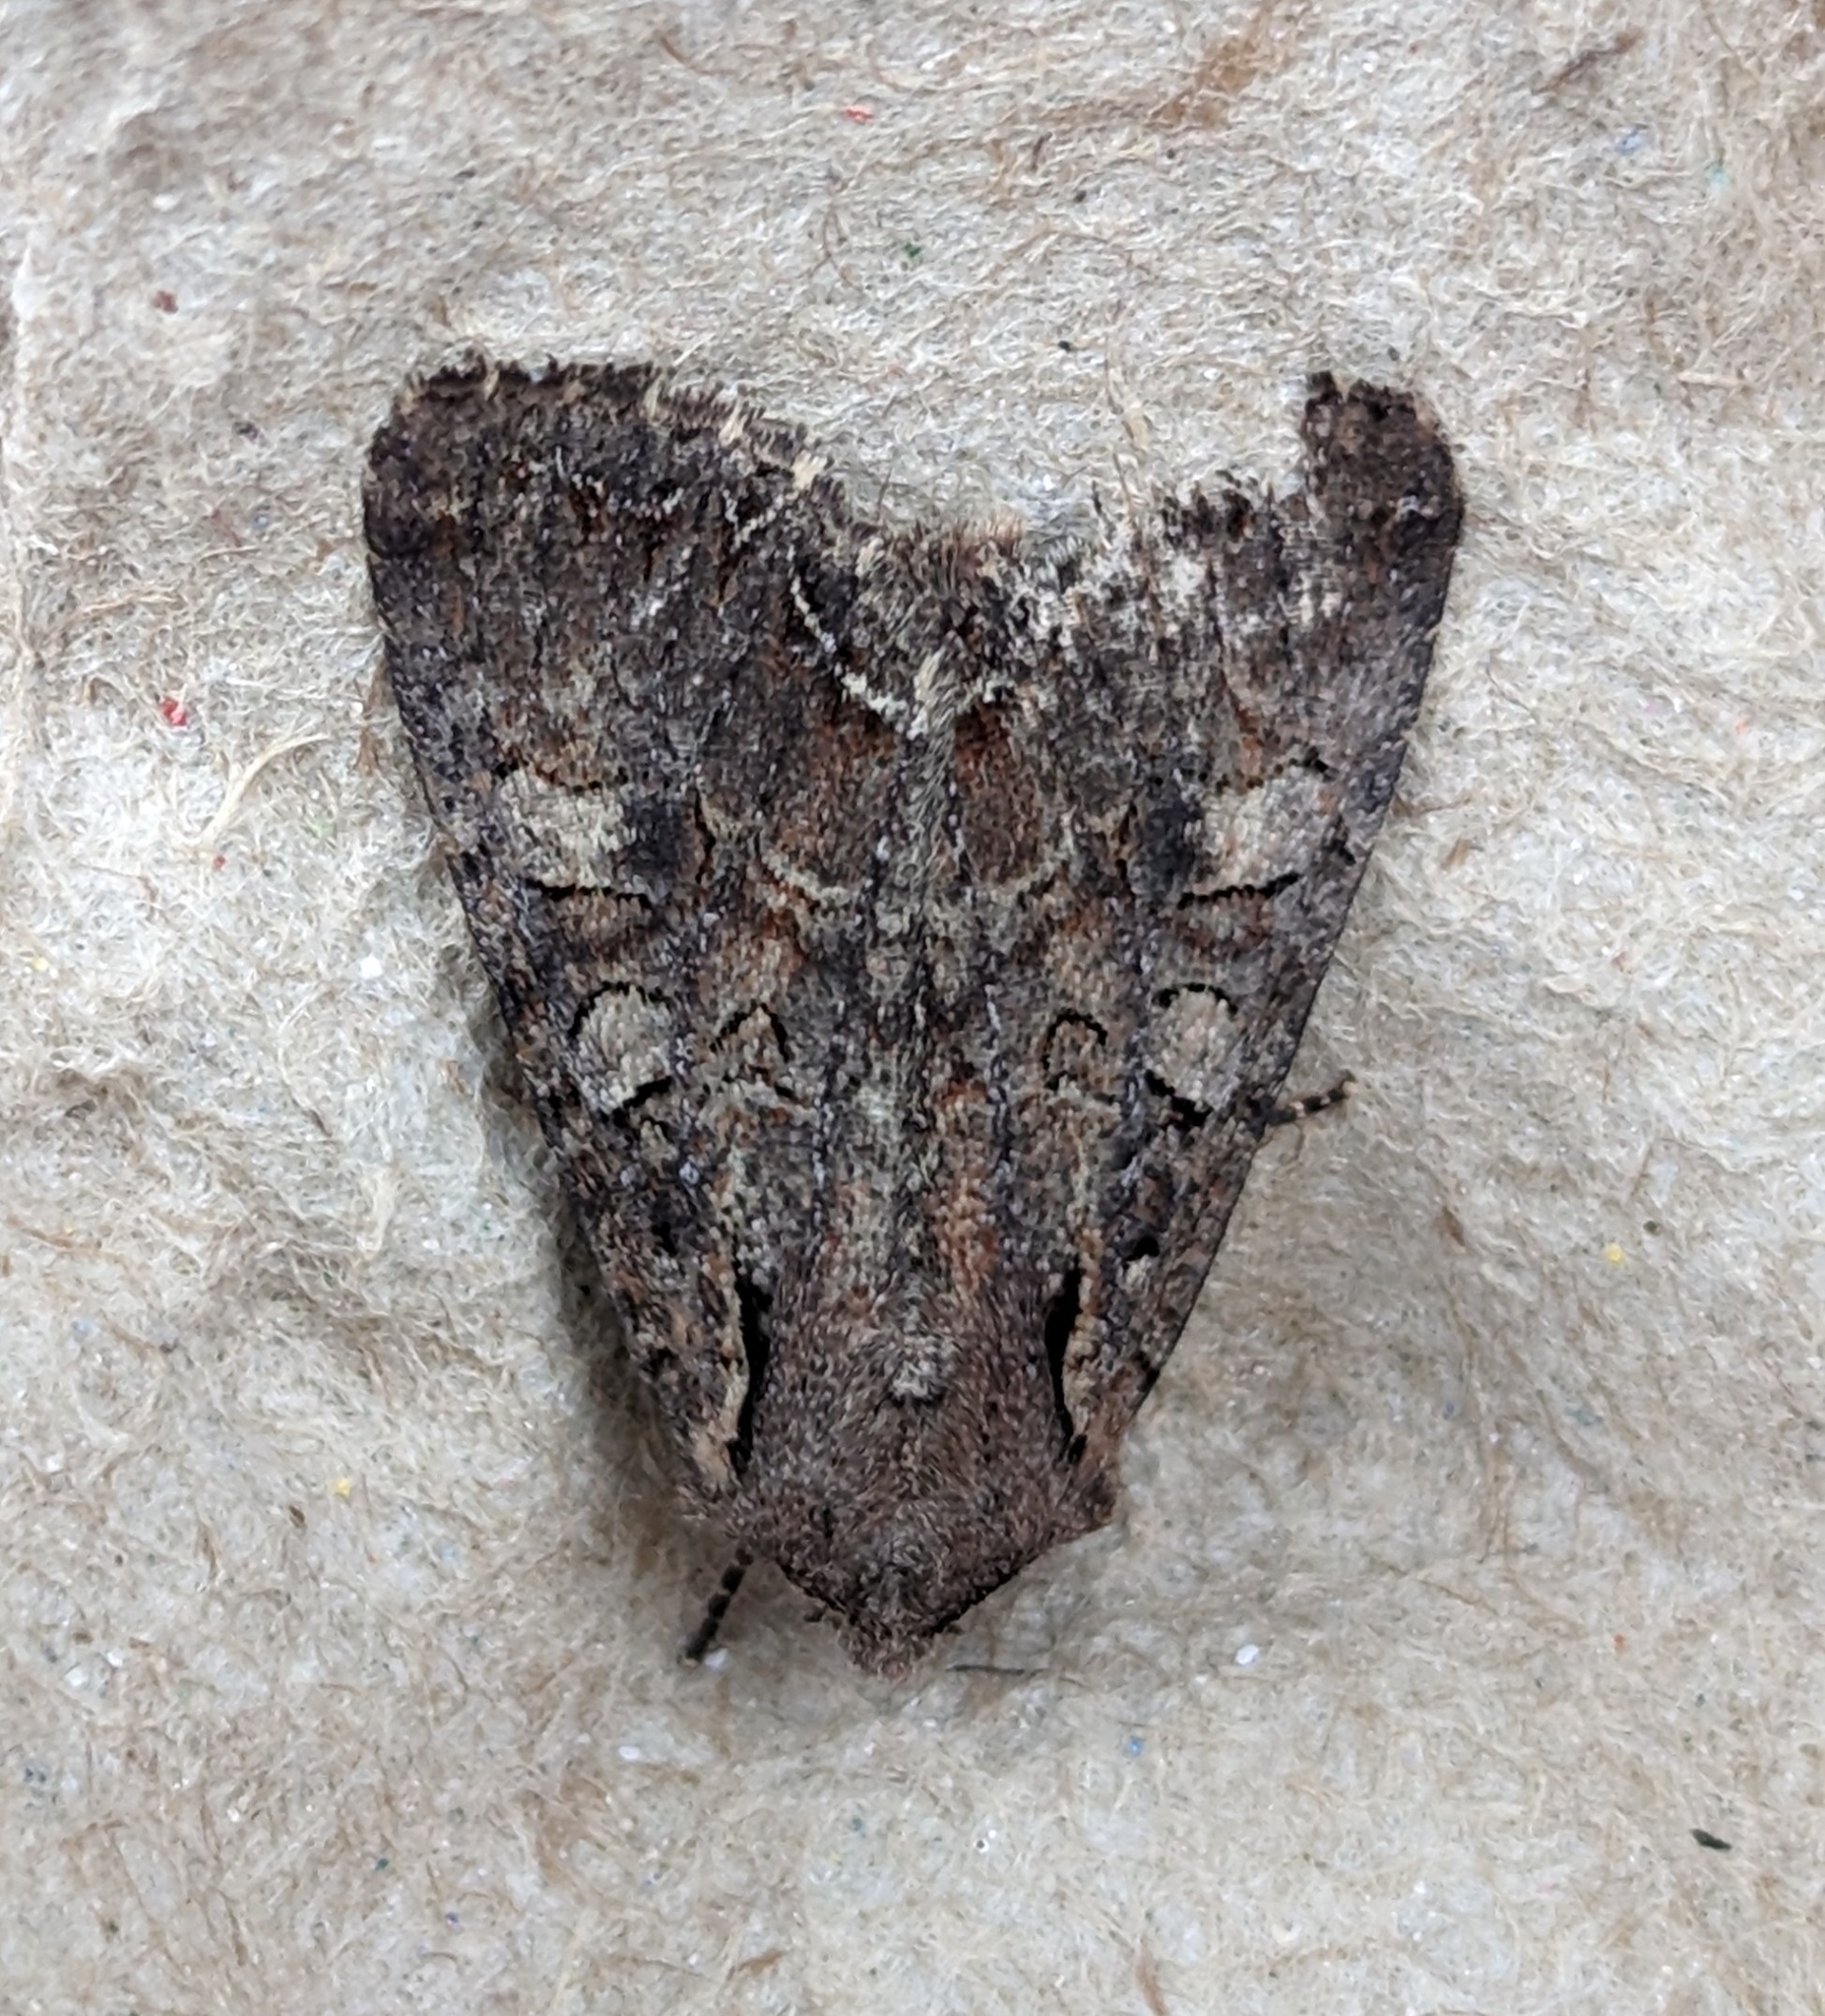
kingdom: Animalia
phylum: Arthropoda
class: Insecta
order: Lepidoptera
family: Noctuidae
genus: Lacanobia
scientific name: Lacanobia radix
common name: Garden arches moth
